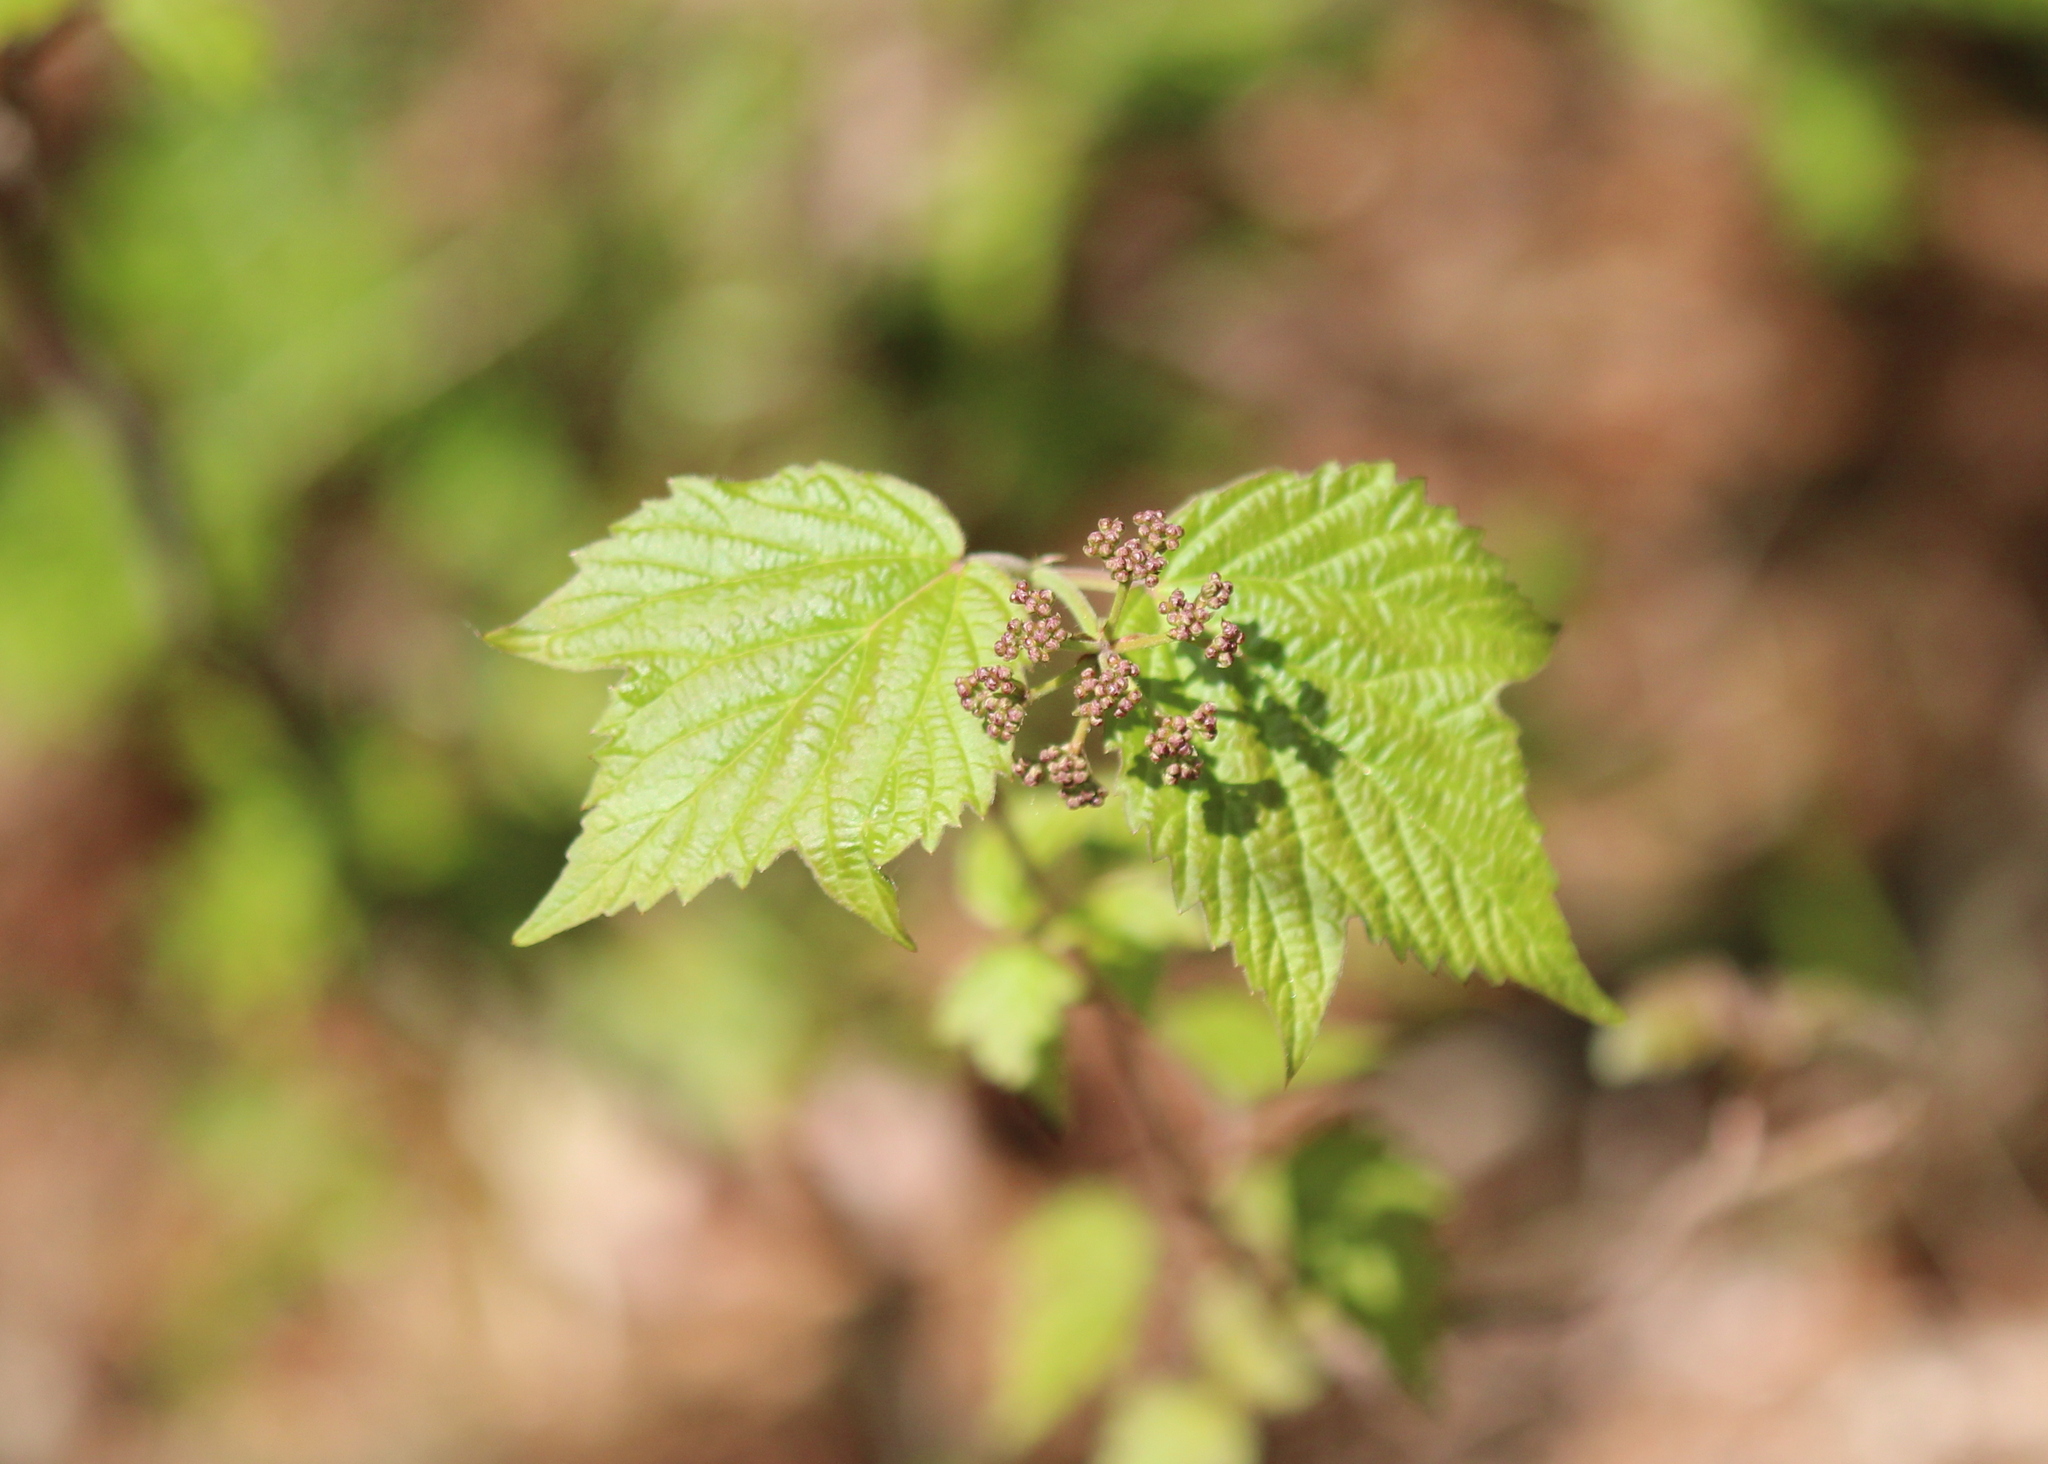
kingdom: Plantae
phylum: Tracheophyta
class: Magnoliopsida
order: Dipsacales
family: Viburnaceae
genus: Viburnum
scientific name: Viburnum acerifolium
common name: Dockmackie
